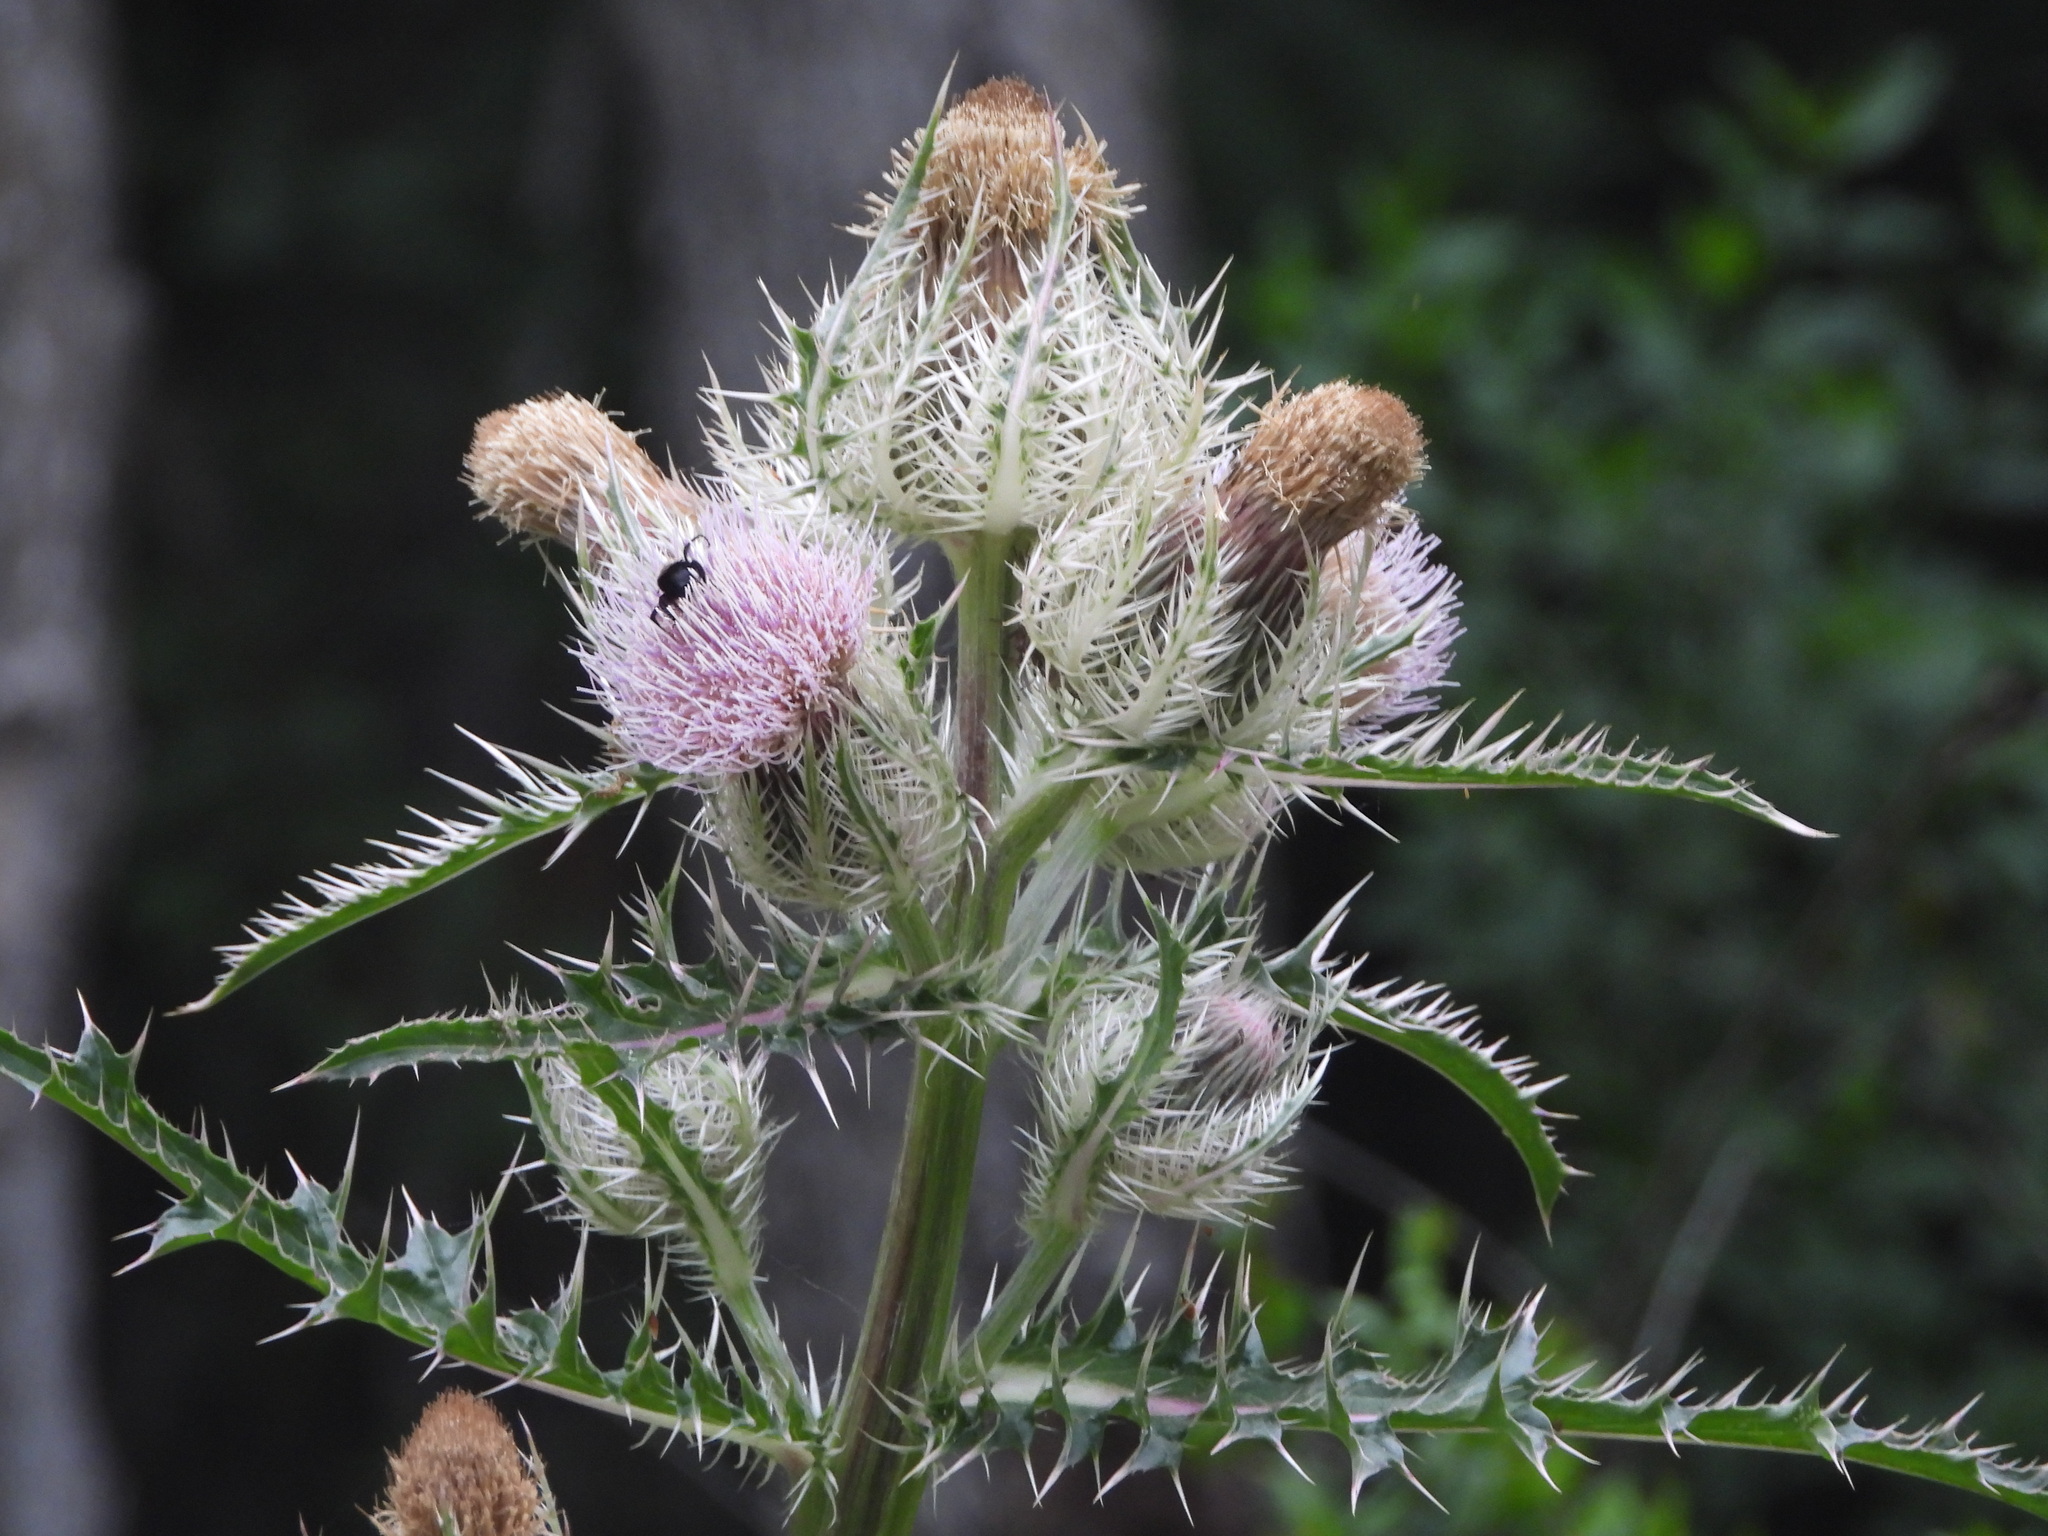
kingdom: Plantae
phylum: Tracheophyta
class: Magnoliopsida
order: Asterales
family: Asteraceae
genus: Cirsium
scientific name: Cirsium horridulum
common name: Bristly thistle
